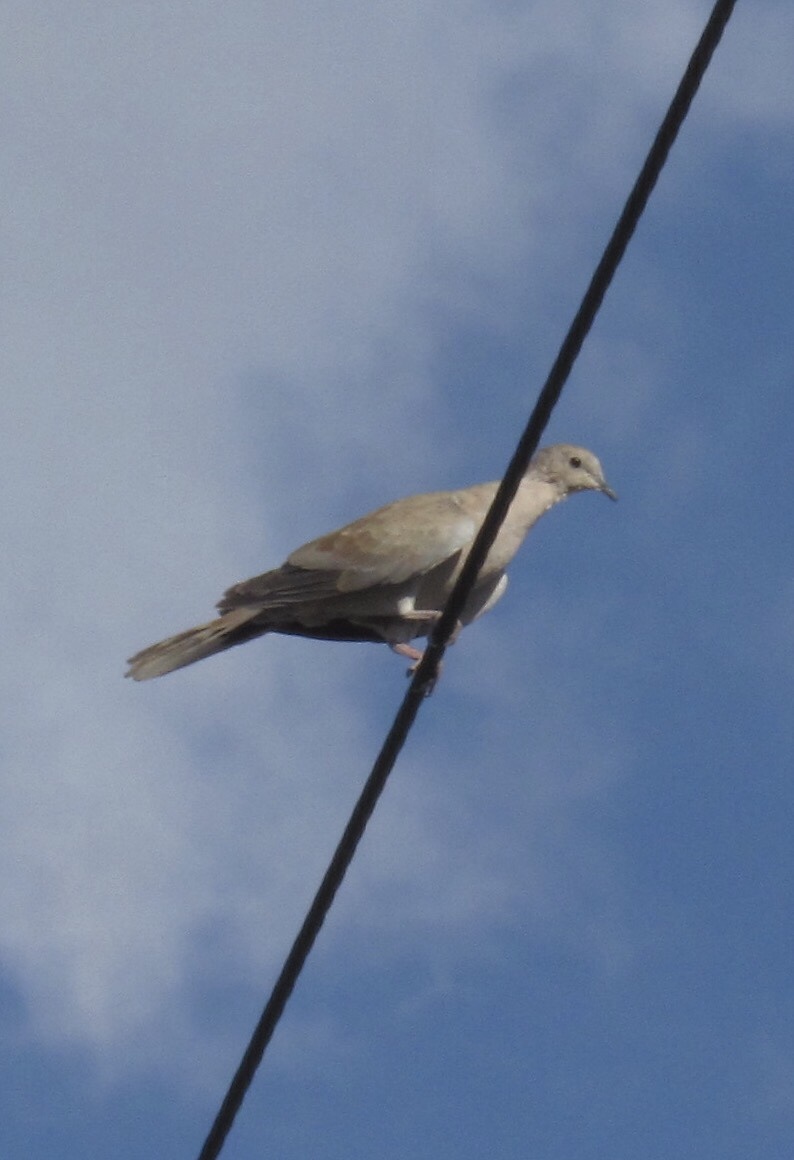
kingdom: Animalia
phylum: Chordata
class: Aves
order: Columbiformes
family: Columbidae
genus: Streptopelia
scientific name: Streptopelia decaocto
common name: Eurasian collared dove
